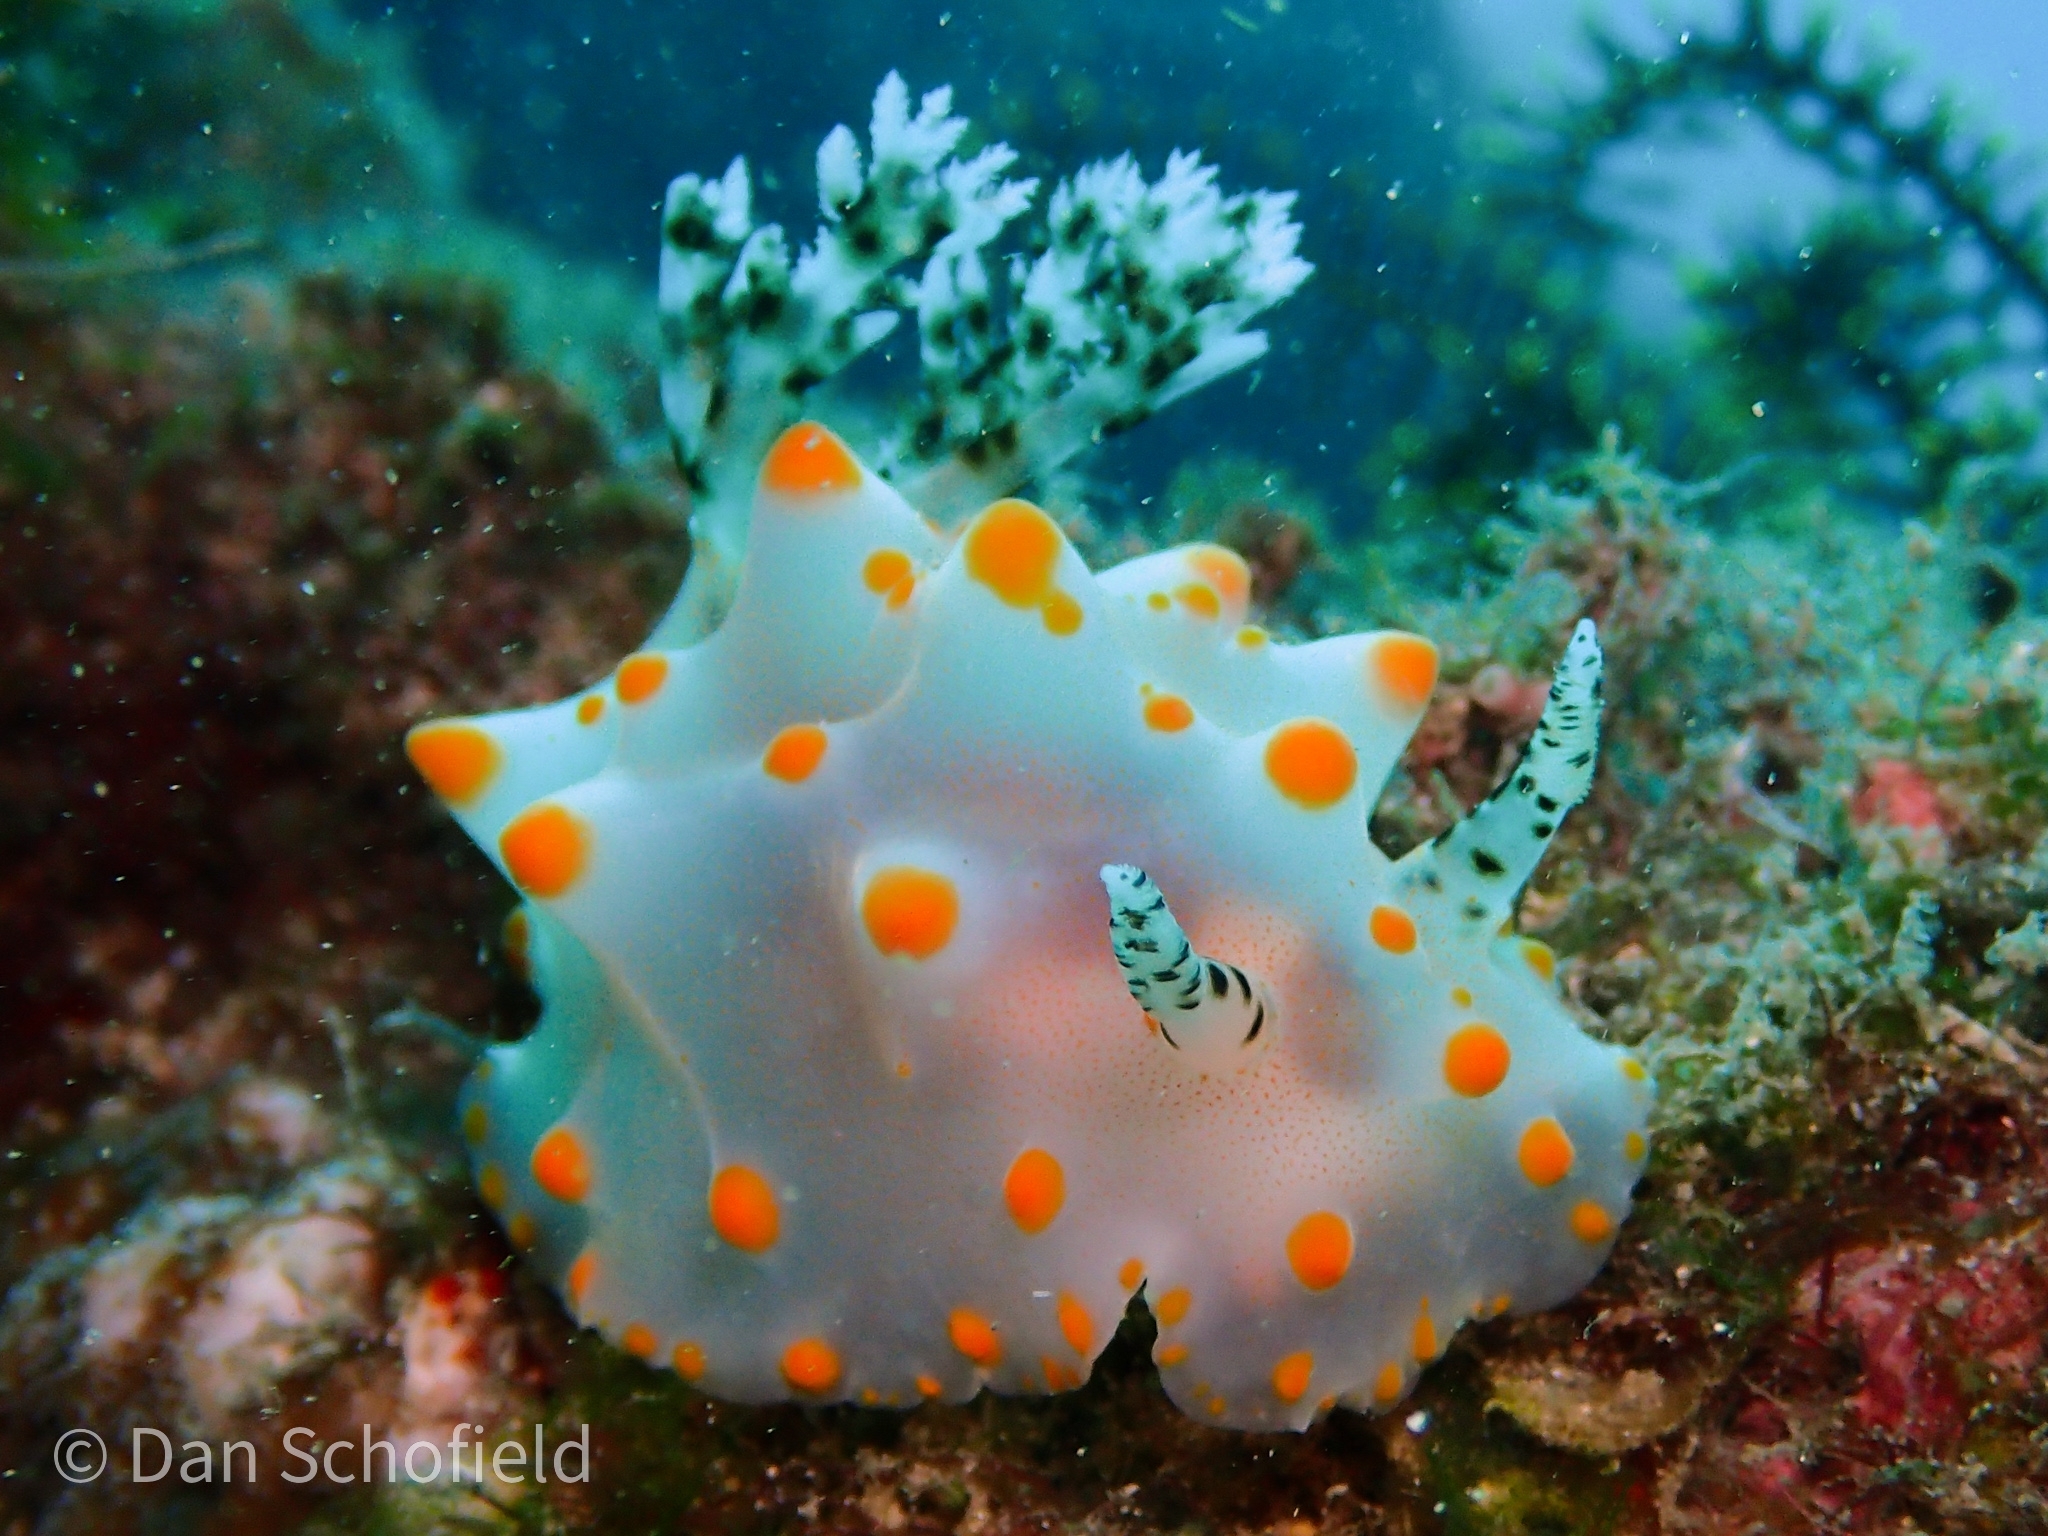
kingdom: Animalia
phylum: Mollusca
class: Gastropoda
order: Nudibranchia
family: Discodorididae
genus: Halgerda
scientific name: Halgerda carlsoni
